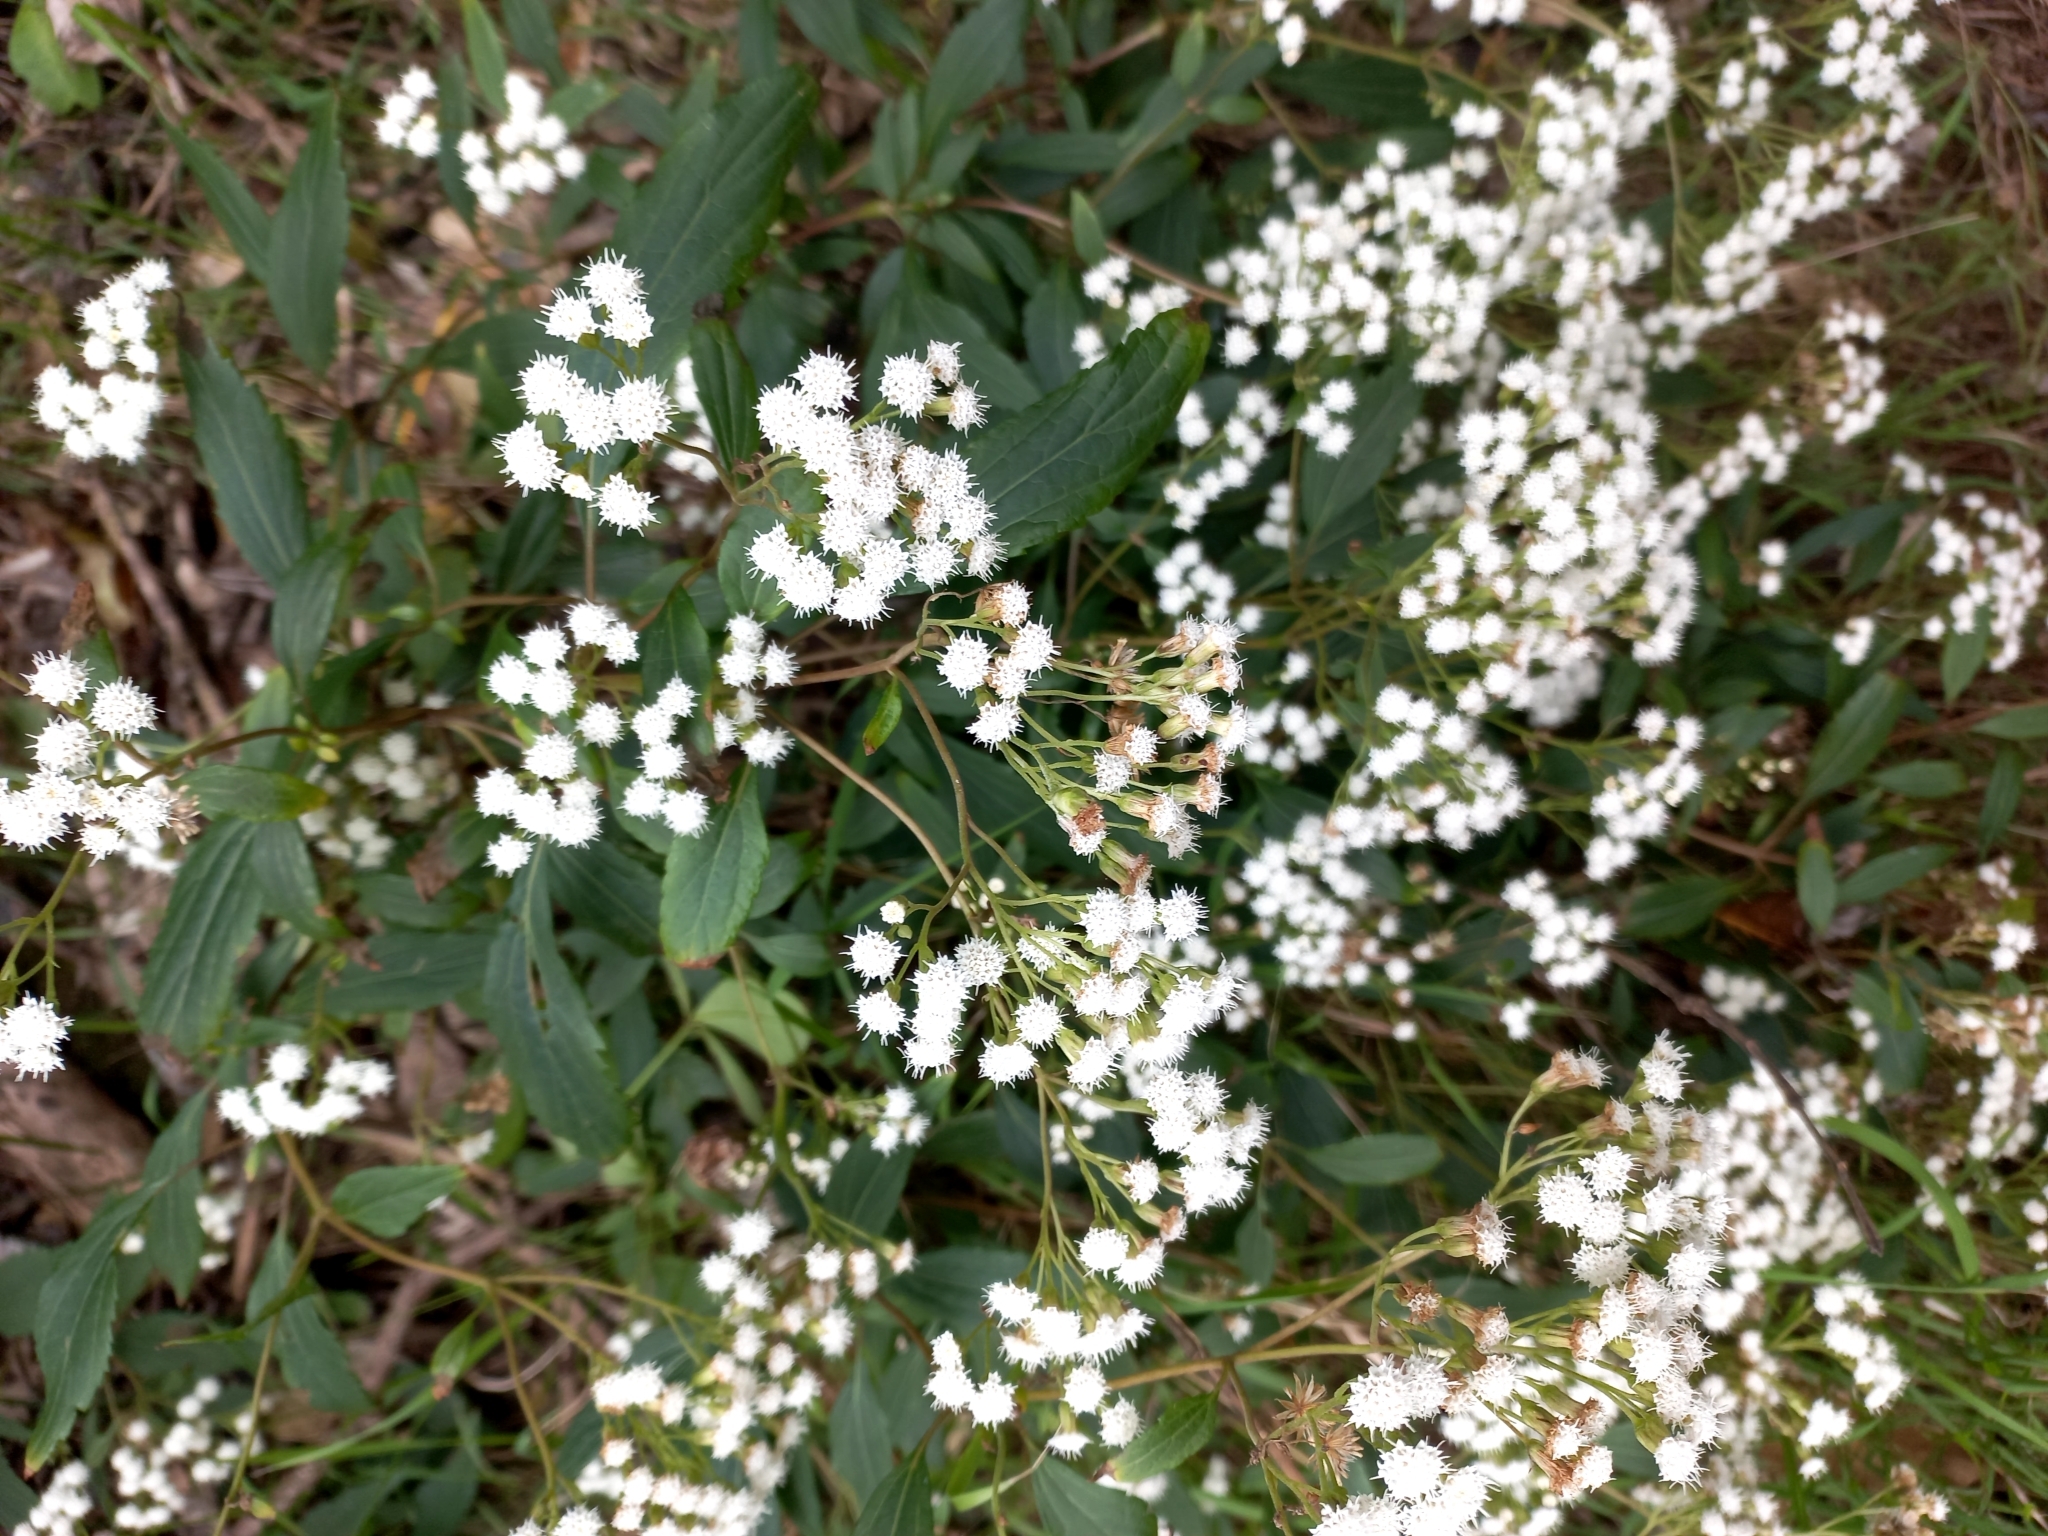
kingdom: Plantae
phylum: Tracheophyta
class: Magnoliopsida
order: Asterales
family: Asteraceae
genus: Ageratina
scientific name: Ageratina riparia
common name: Creeping croftonweed
